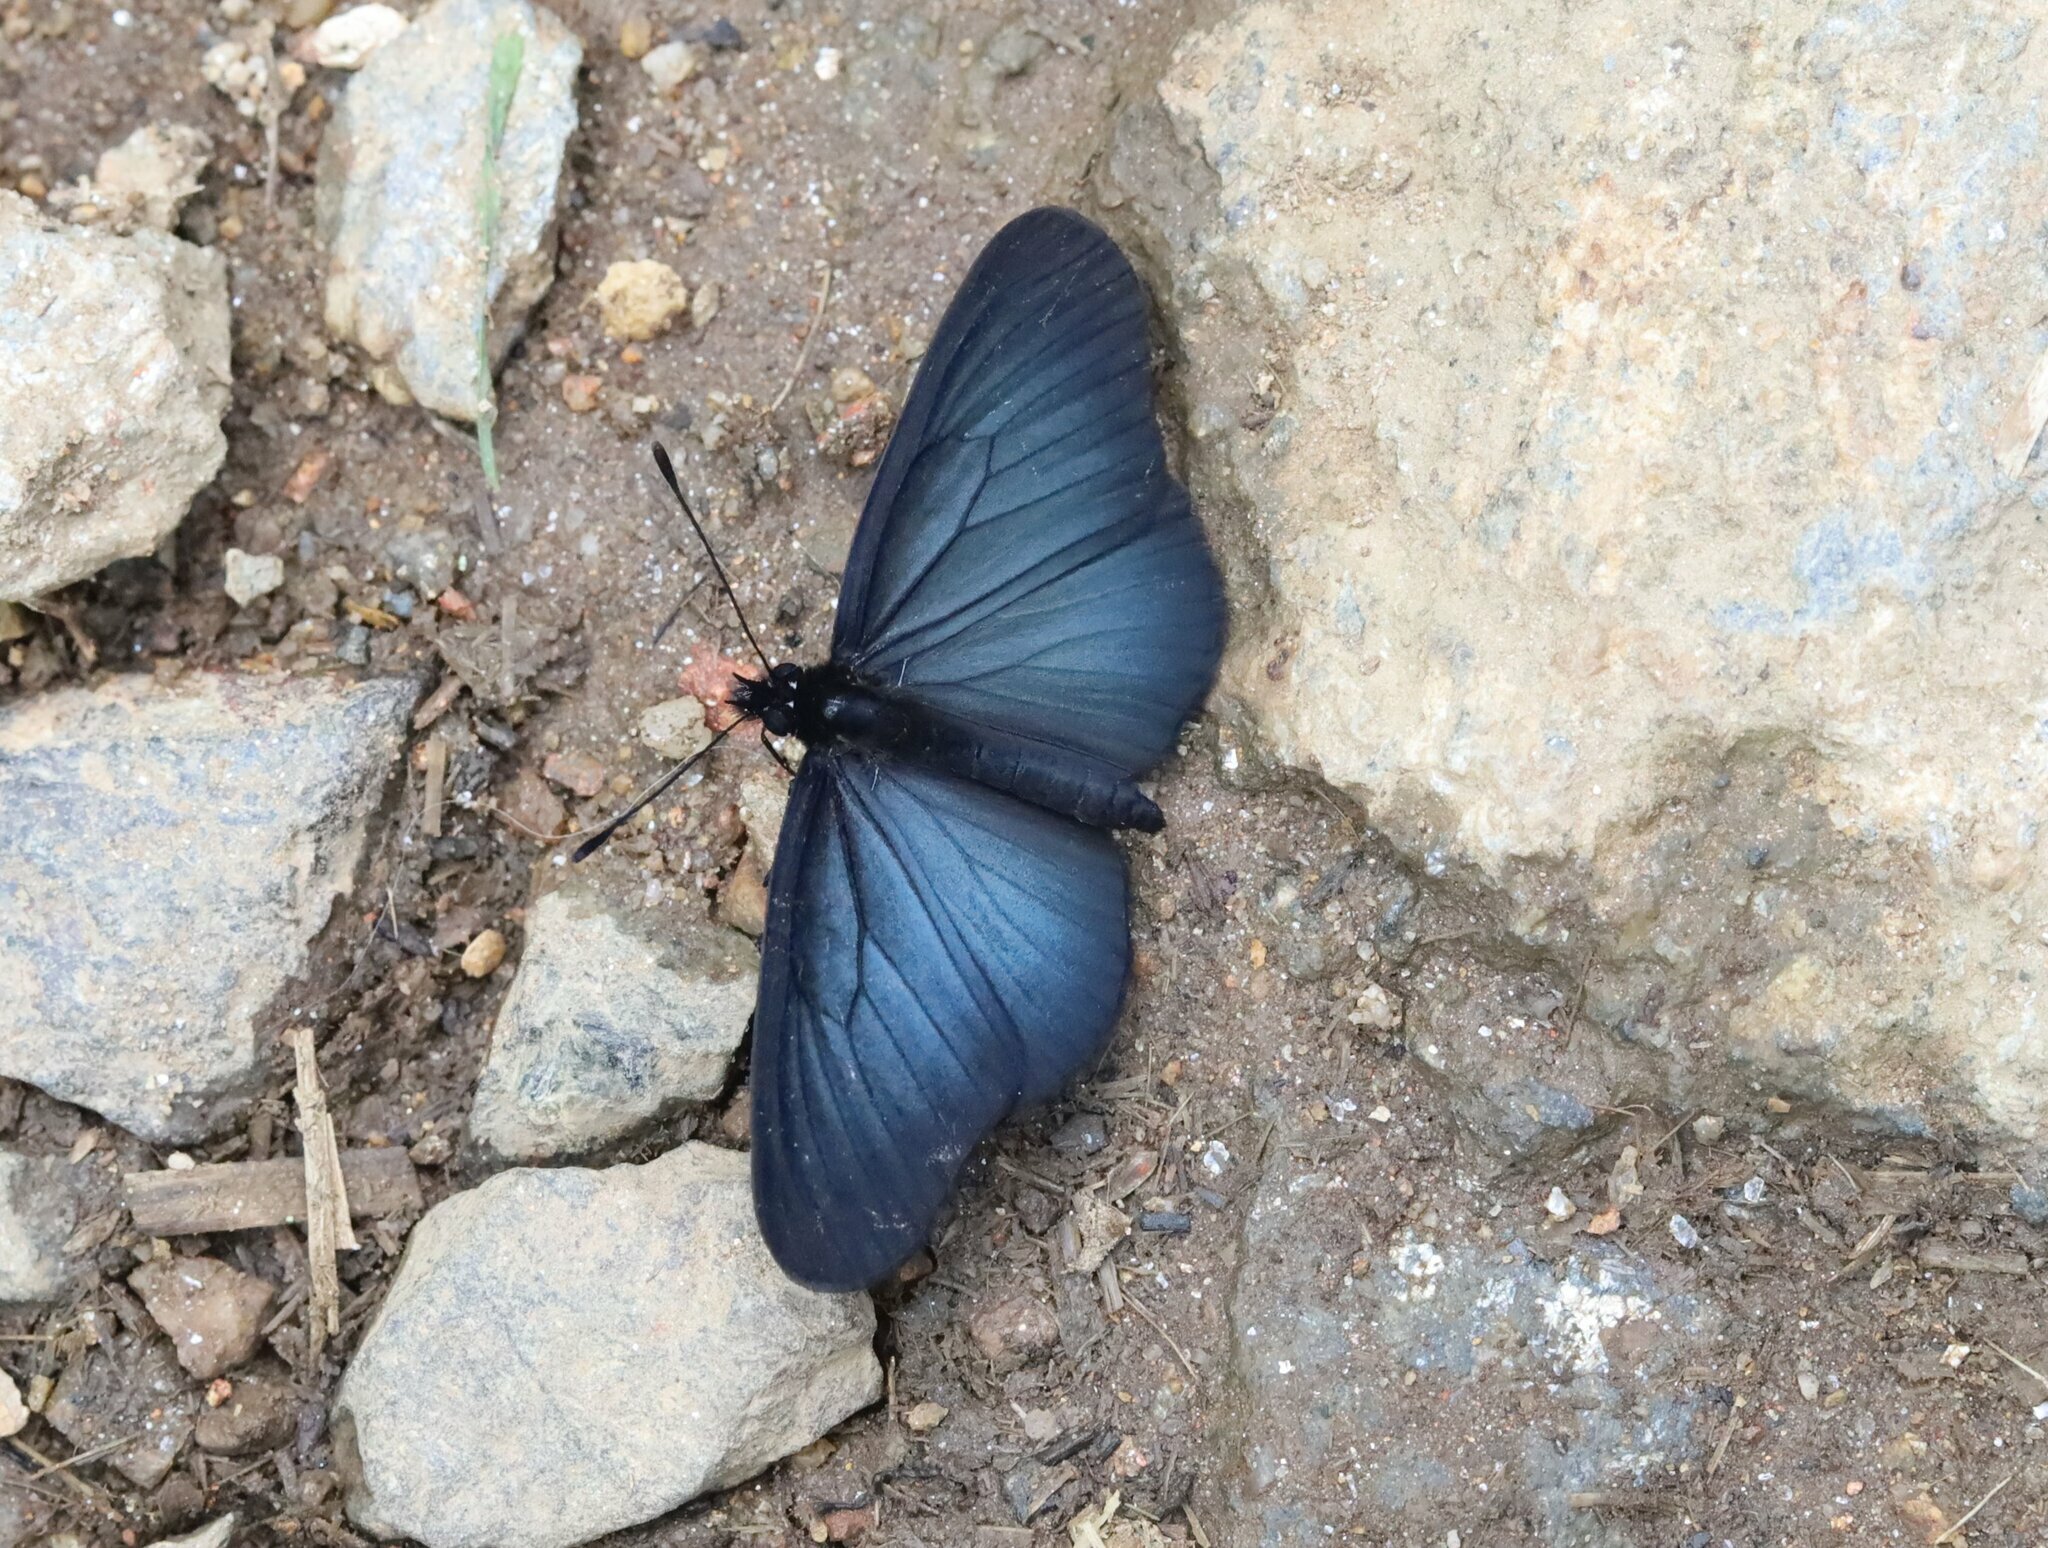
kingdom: Animalia
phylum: Arthropoda
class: Insecta
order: Lepidoptera
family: Nymphalidae
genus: Gnathotriche
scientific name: Gnathotriche mundina
